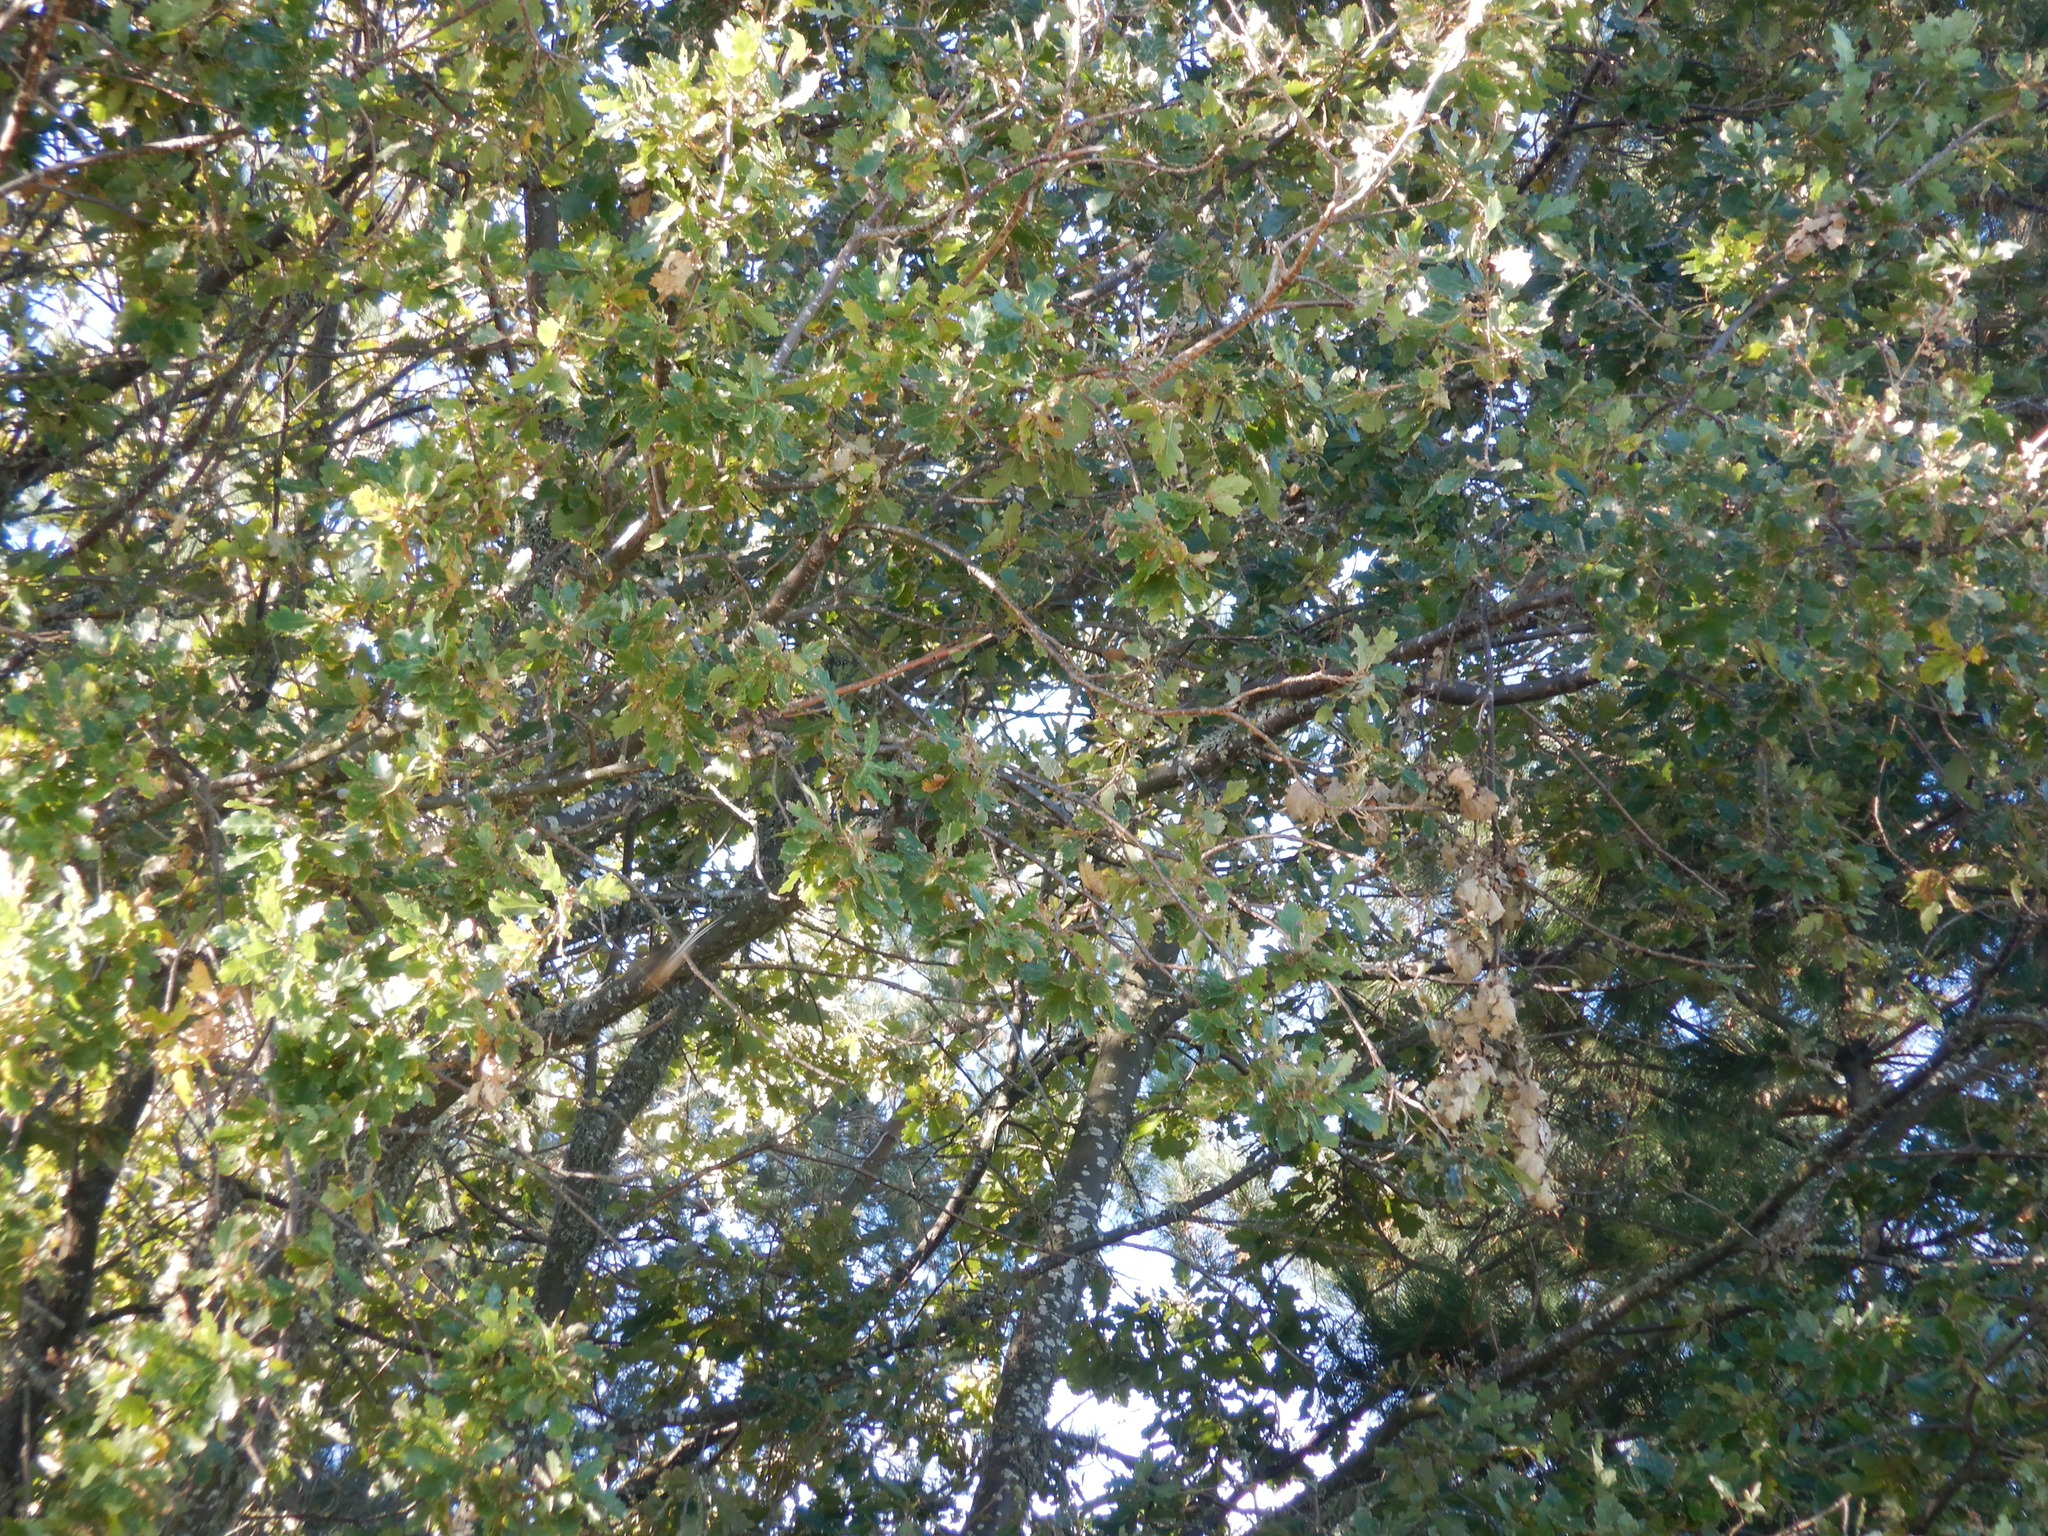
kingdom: Animalia
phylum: Chordata
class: Aves
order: Passeriformes
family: Rhipiduridae
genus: Rhipidura
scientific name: Rhipidura fuliginosa
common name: New zealand fantail
